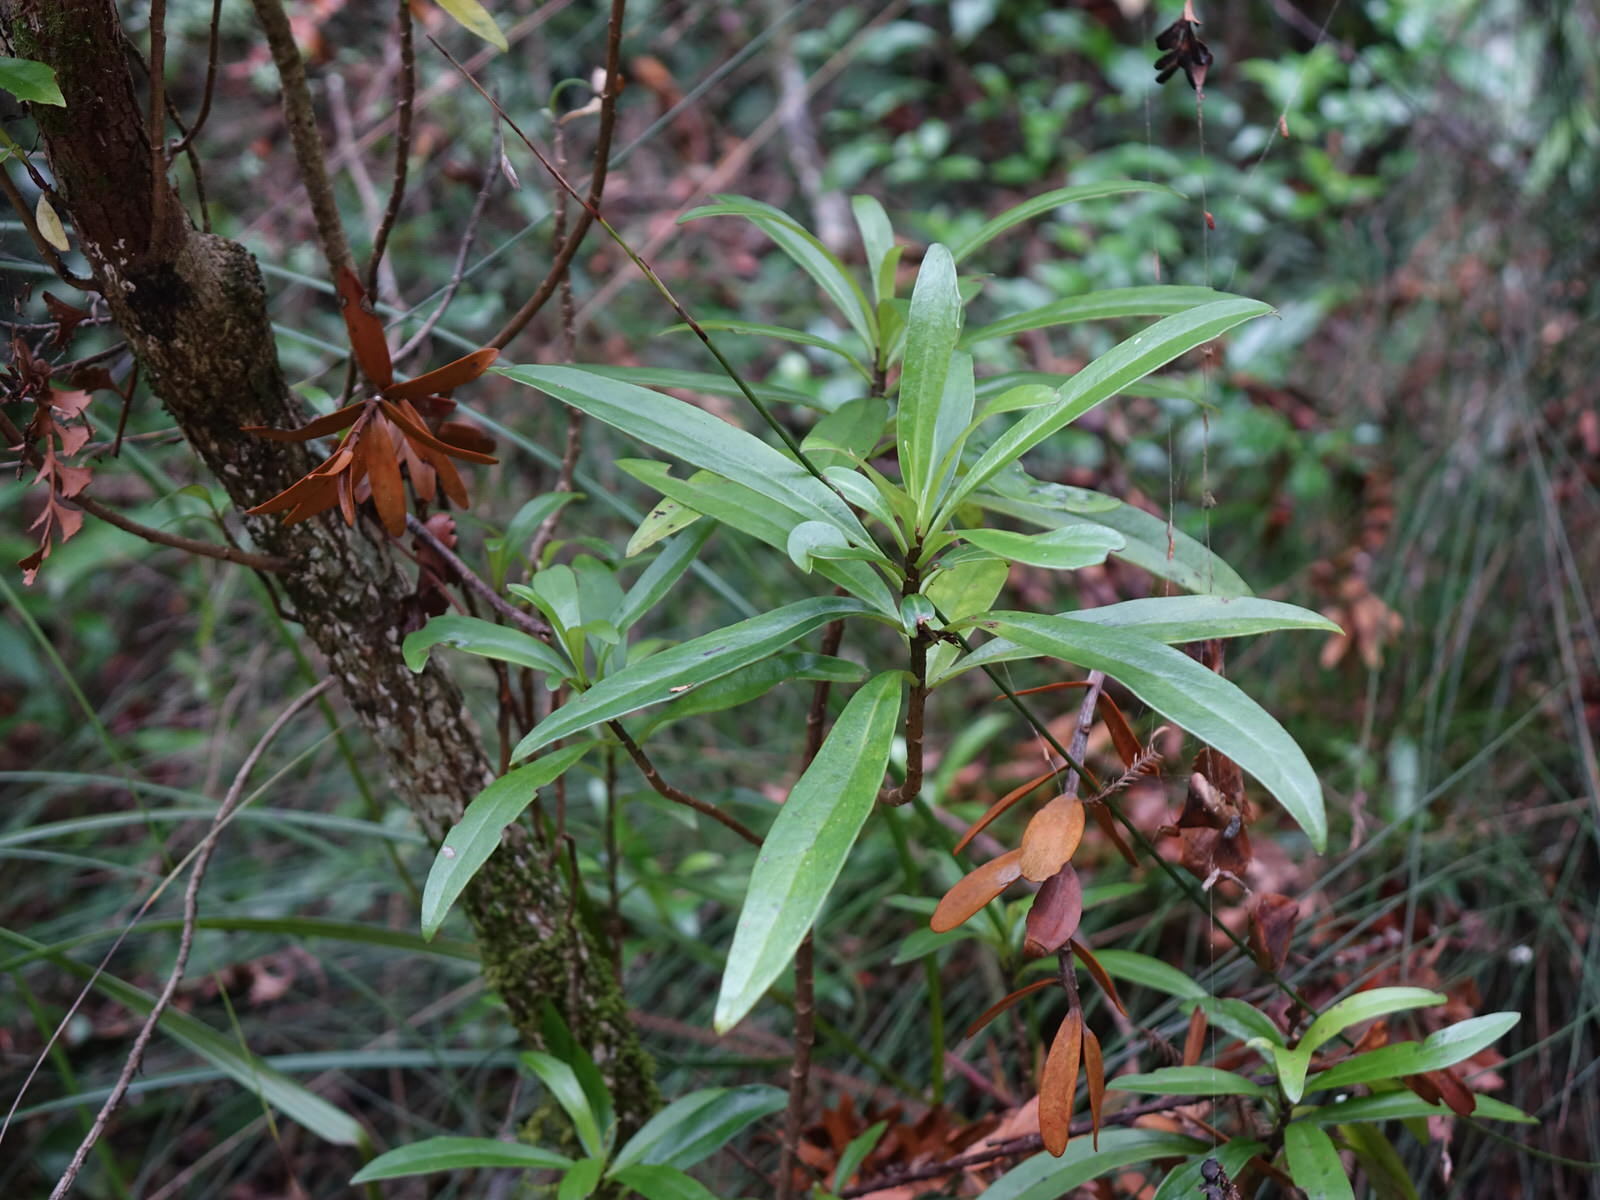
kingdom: Plantae
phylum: Tracheophyta
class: Magnoliopsida
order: Asterales
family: Asteraceae
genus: Brachyglottis
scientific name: Brachyglottis kirkii
